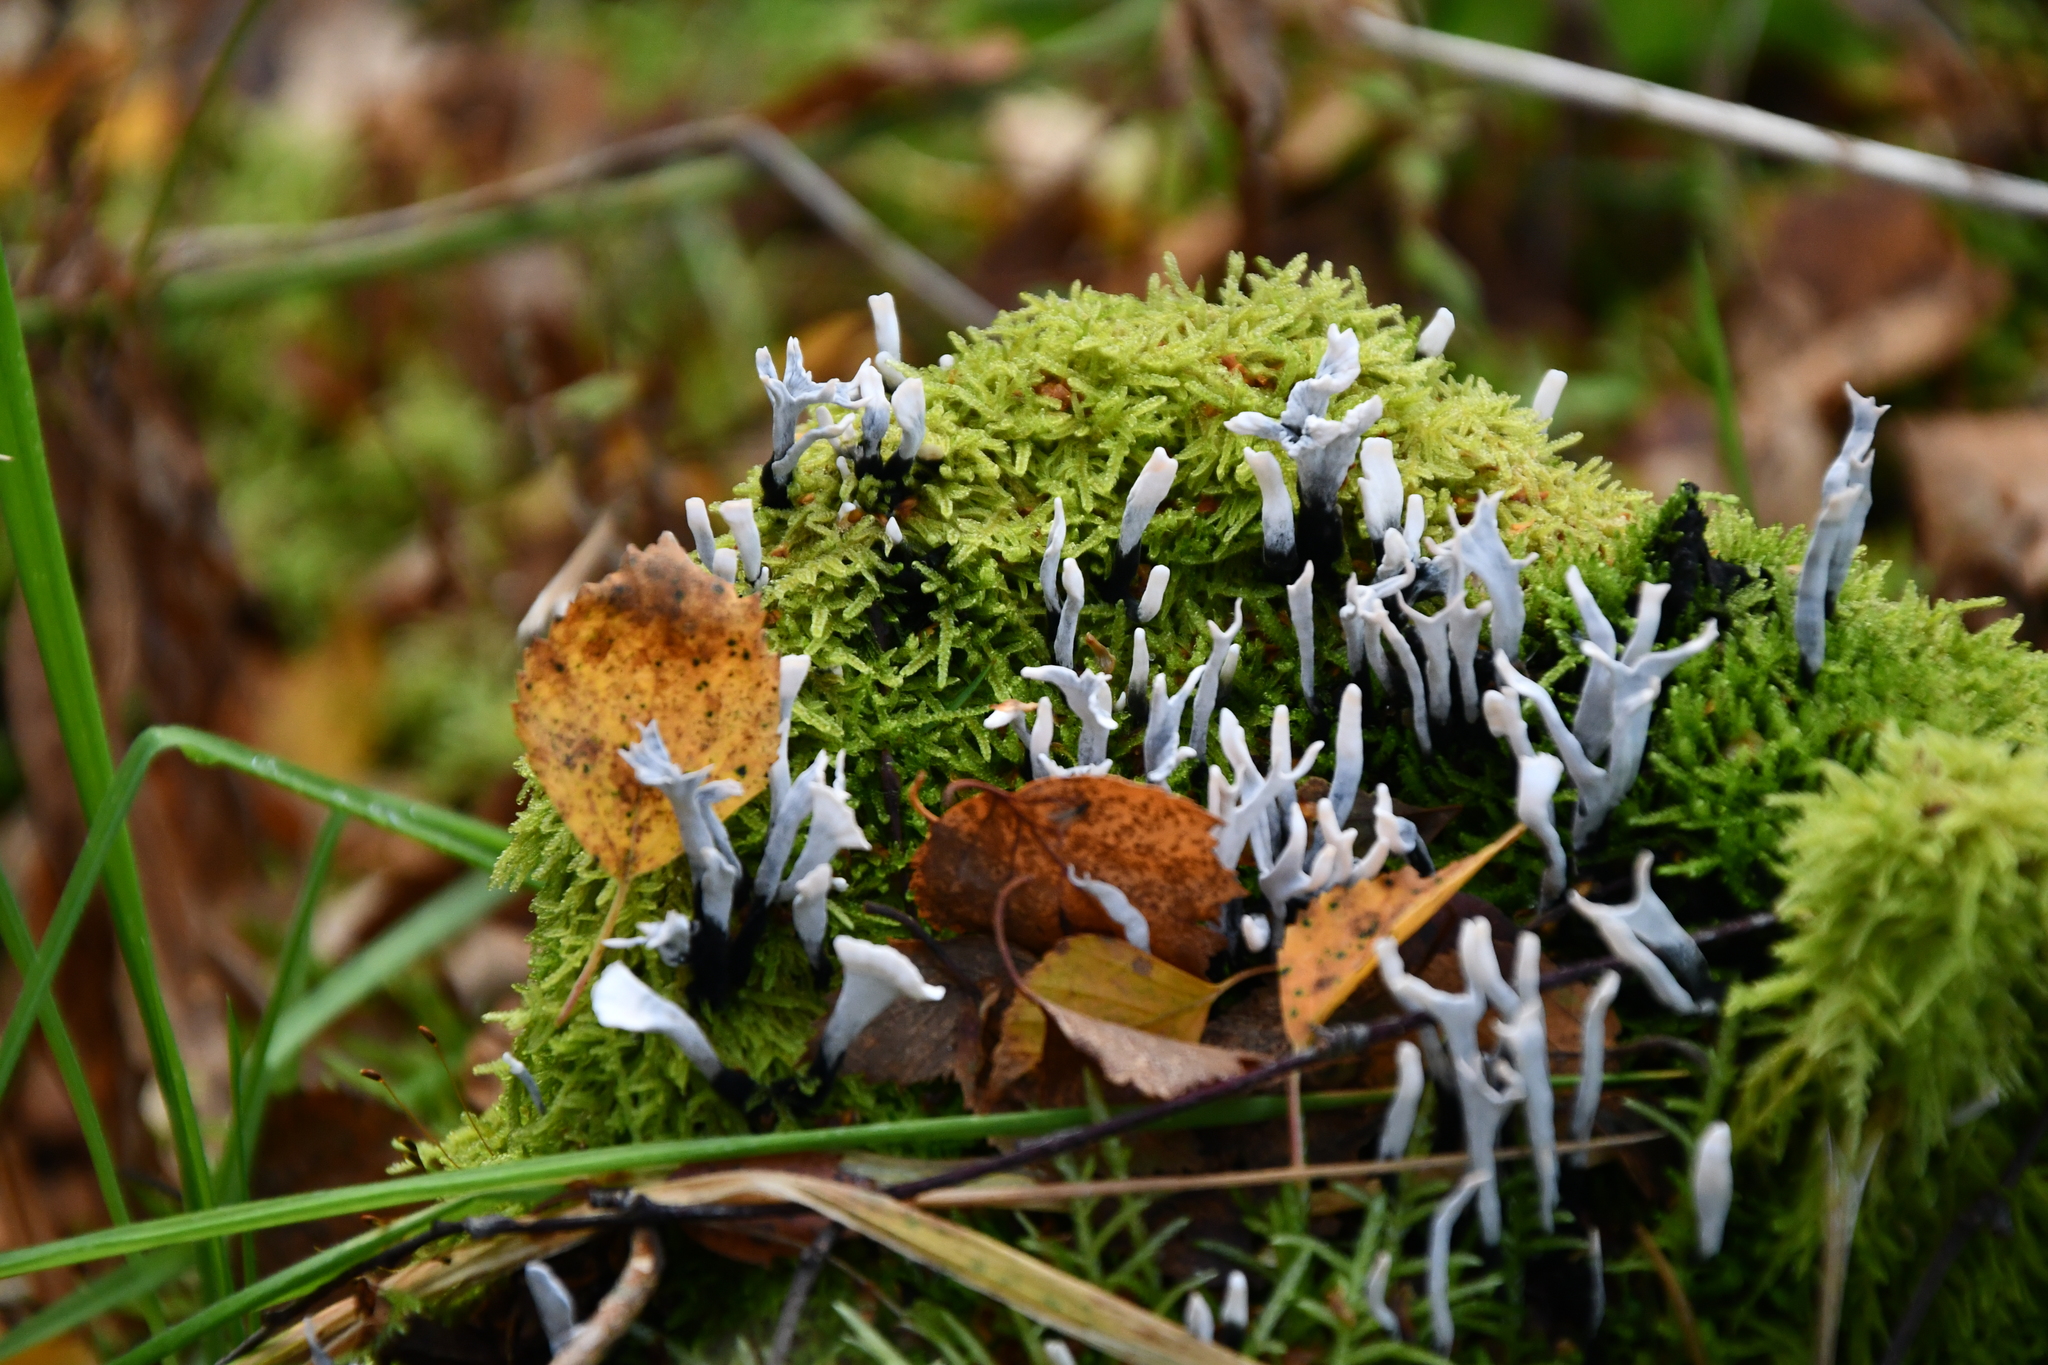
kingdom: Fungi
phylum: Ascomycota
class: Sordariomycetes
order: Xylariales
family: Xylariaceae
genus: Xylaria
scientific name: Xylaria hypoxylon
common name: Candle-snuff fungus
